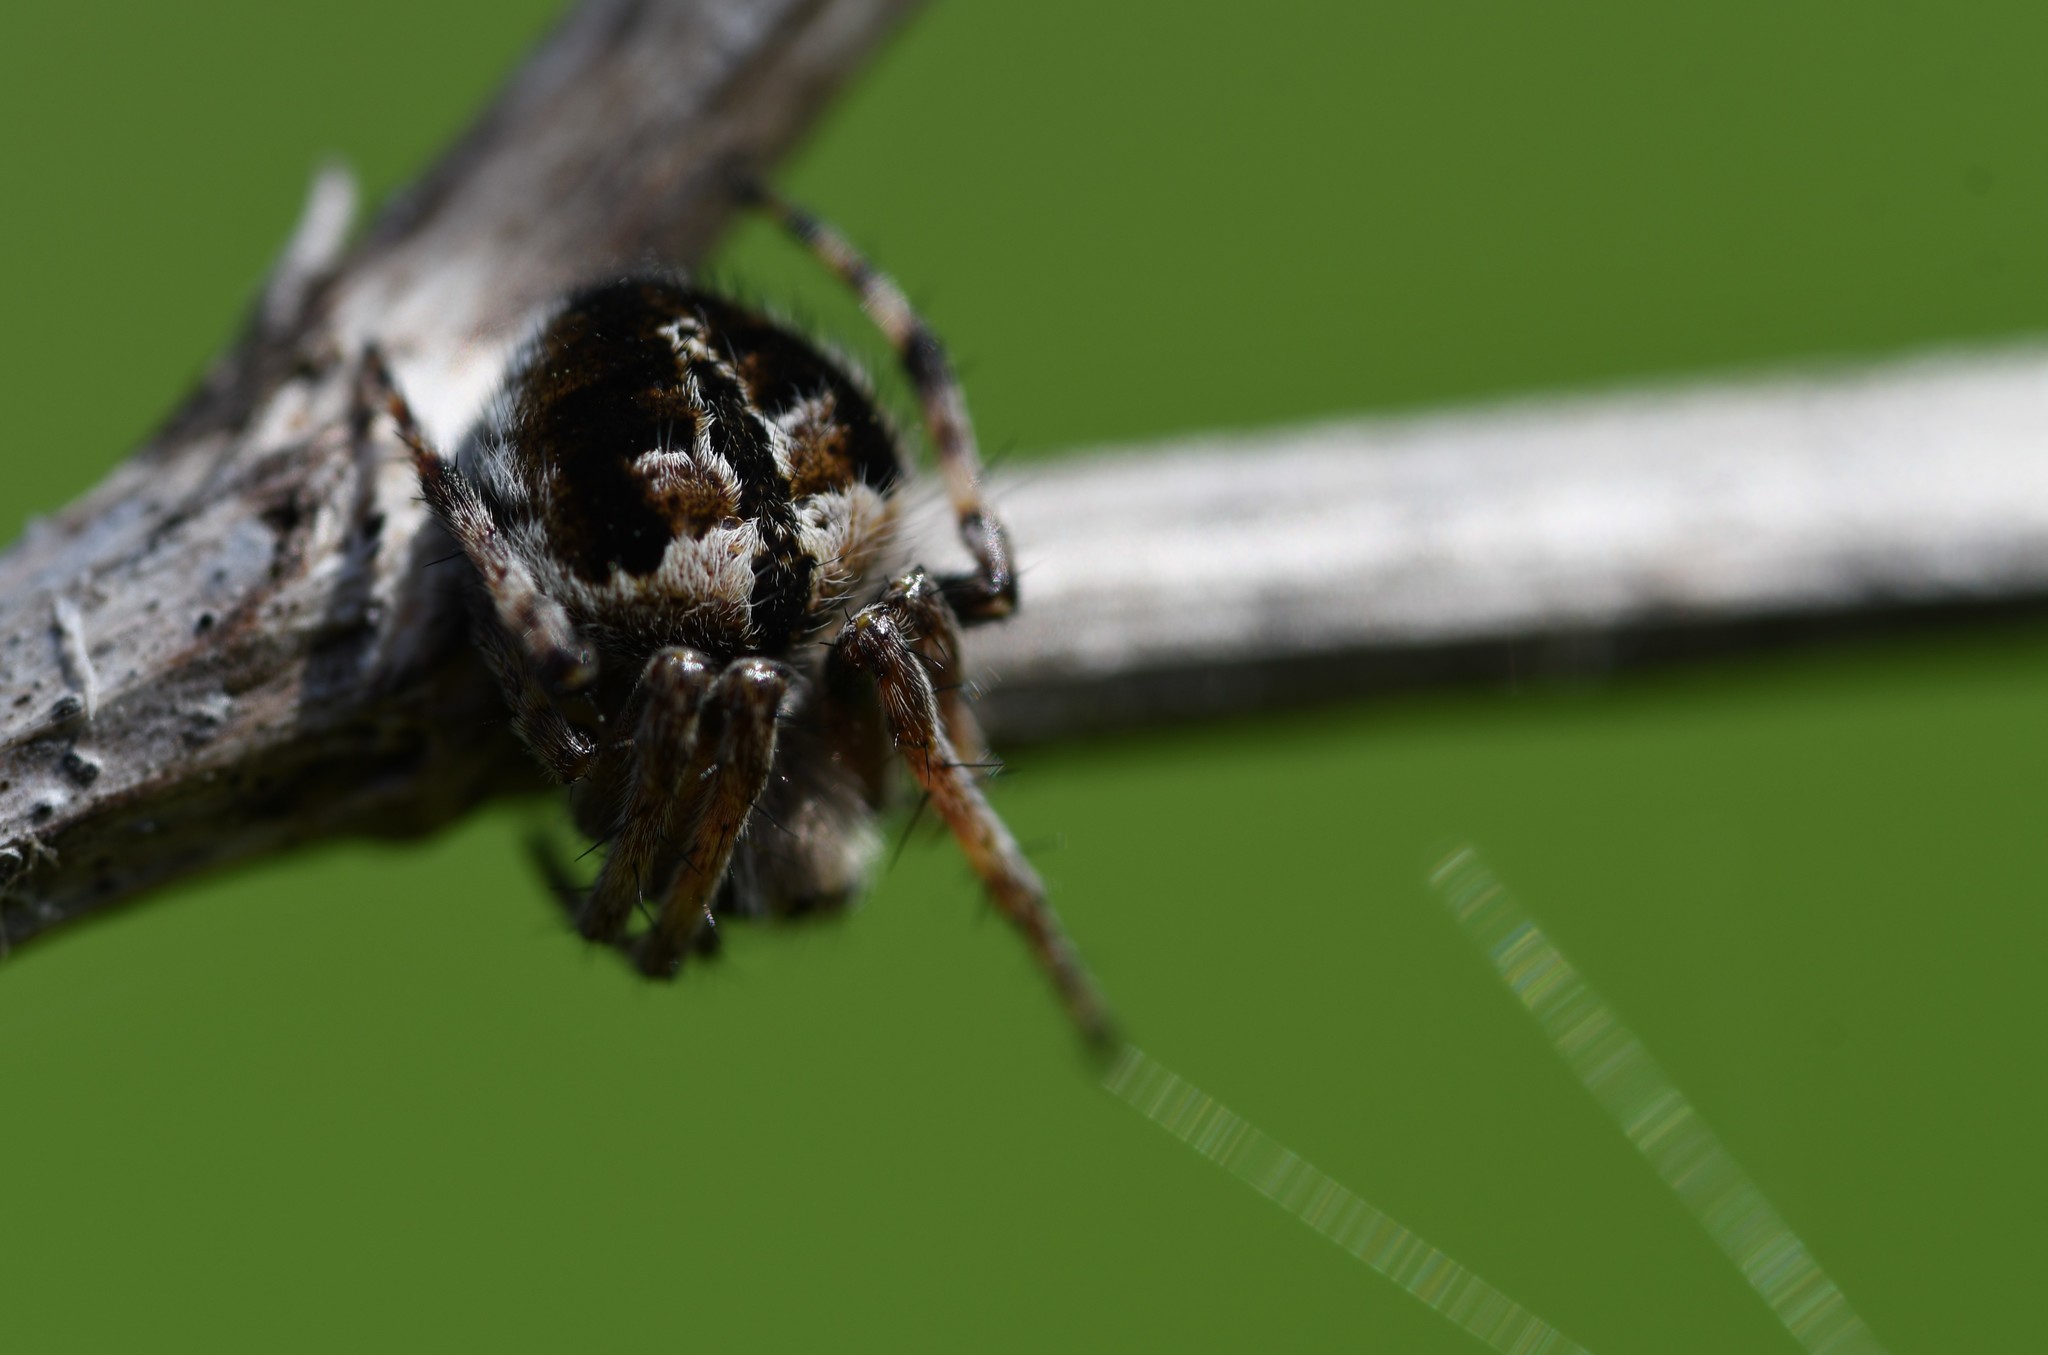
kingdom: Animalia
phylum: Arthropoda
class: Arachnida
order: Araneae
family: Araneidae
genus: Agalenatea
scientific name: Agalenatea redii
